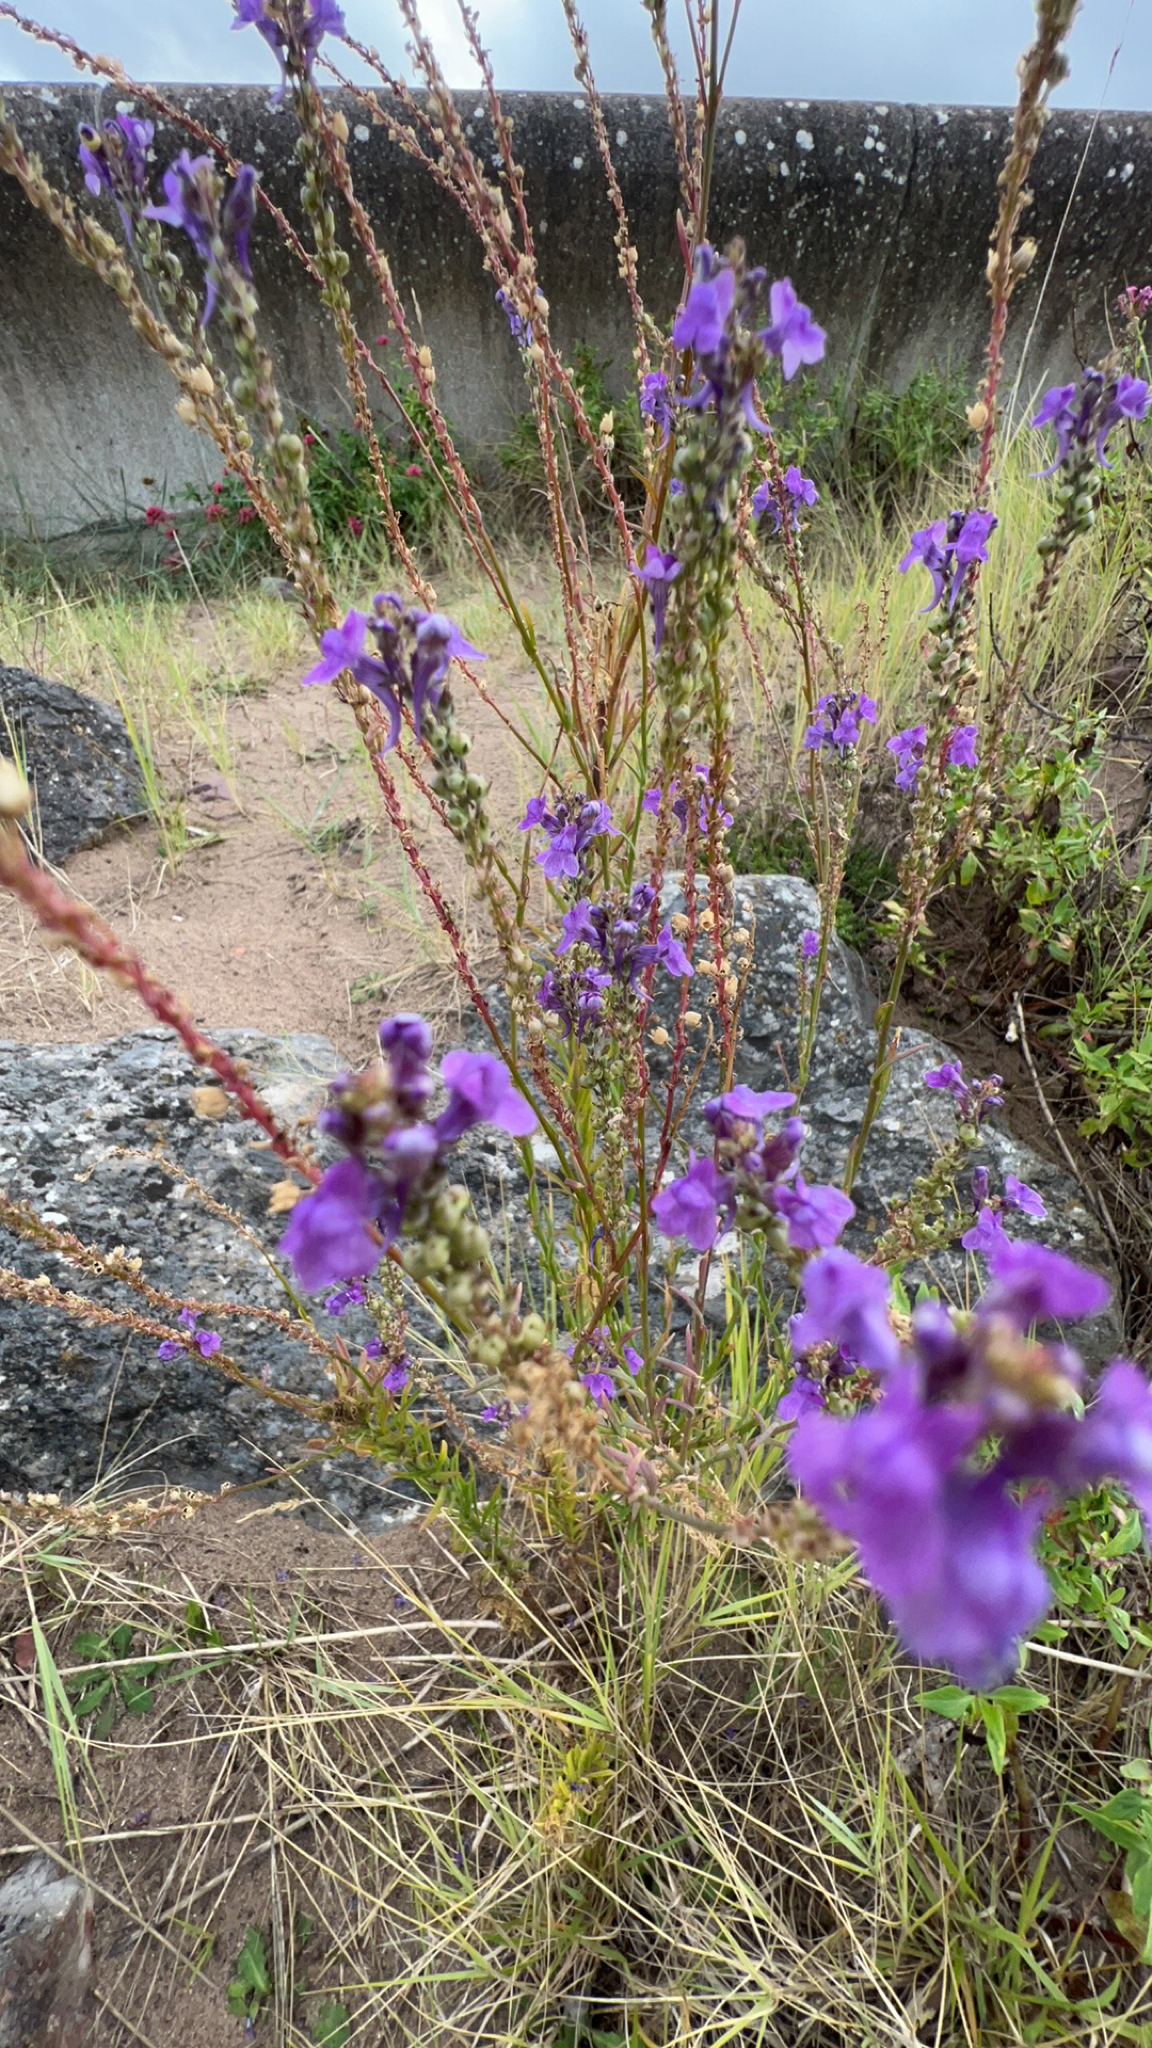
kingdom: Plantae
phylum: Tracheophyta
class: Magnoliopsida
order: Lamiales
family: Plantaginaceae
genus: Linaria
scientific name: Linaria purpurea
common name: Purple toadflax
